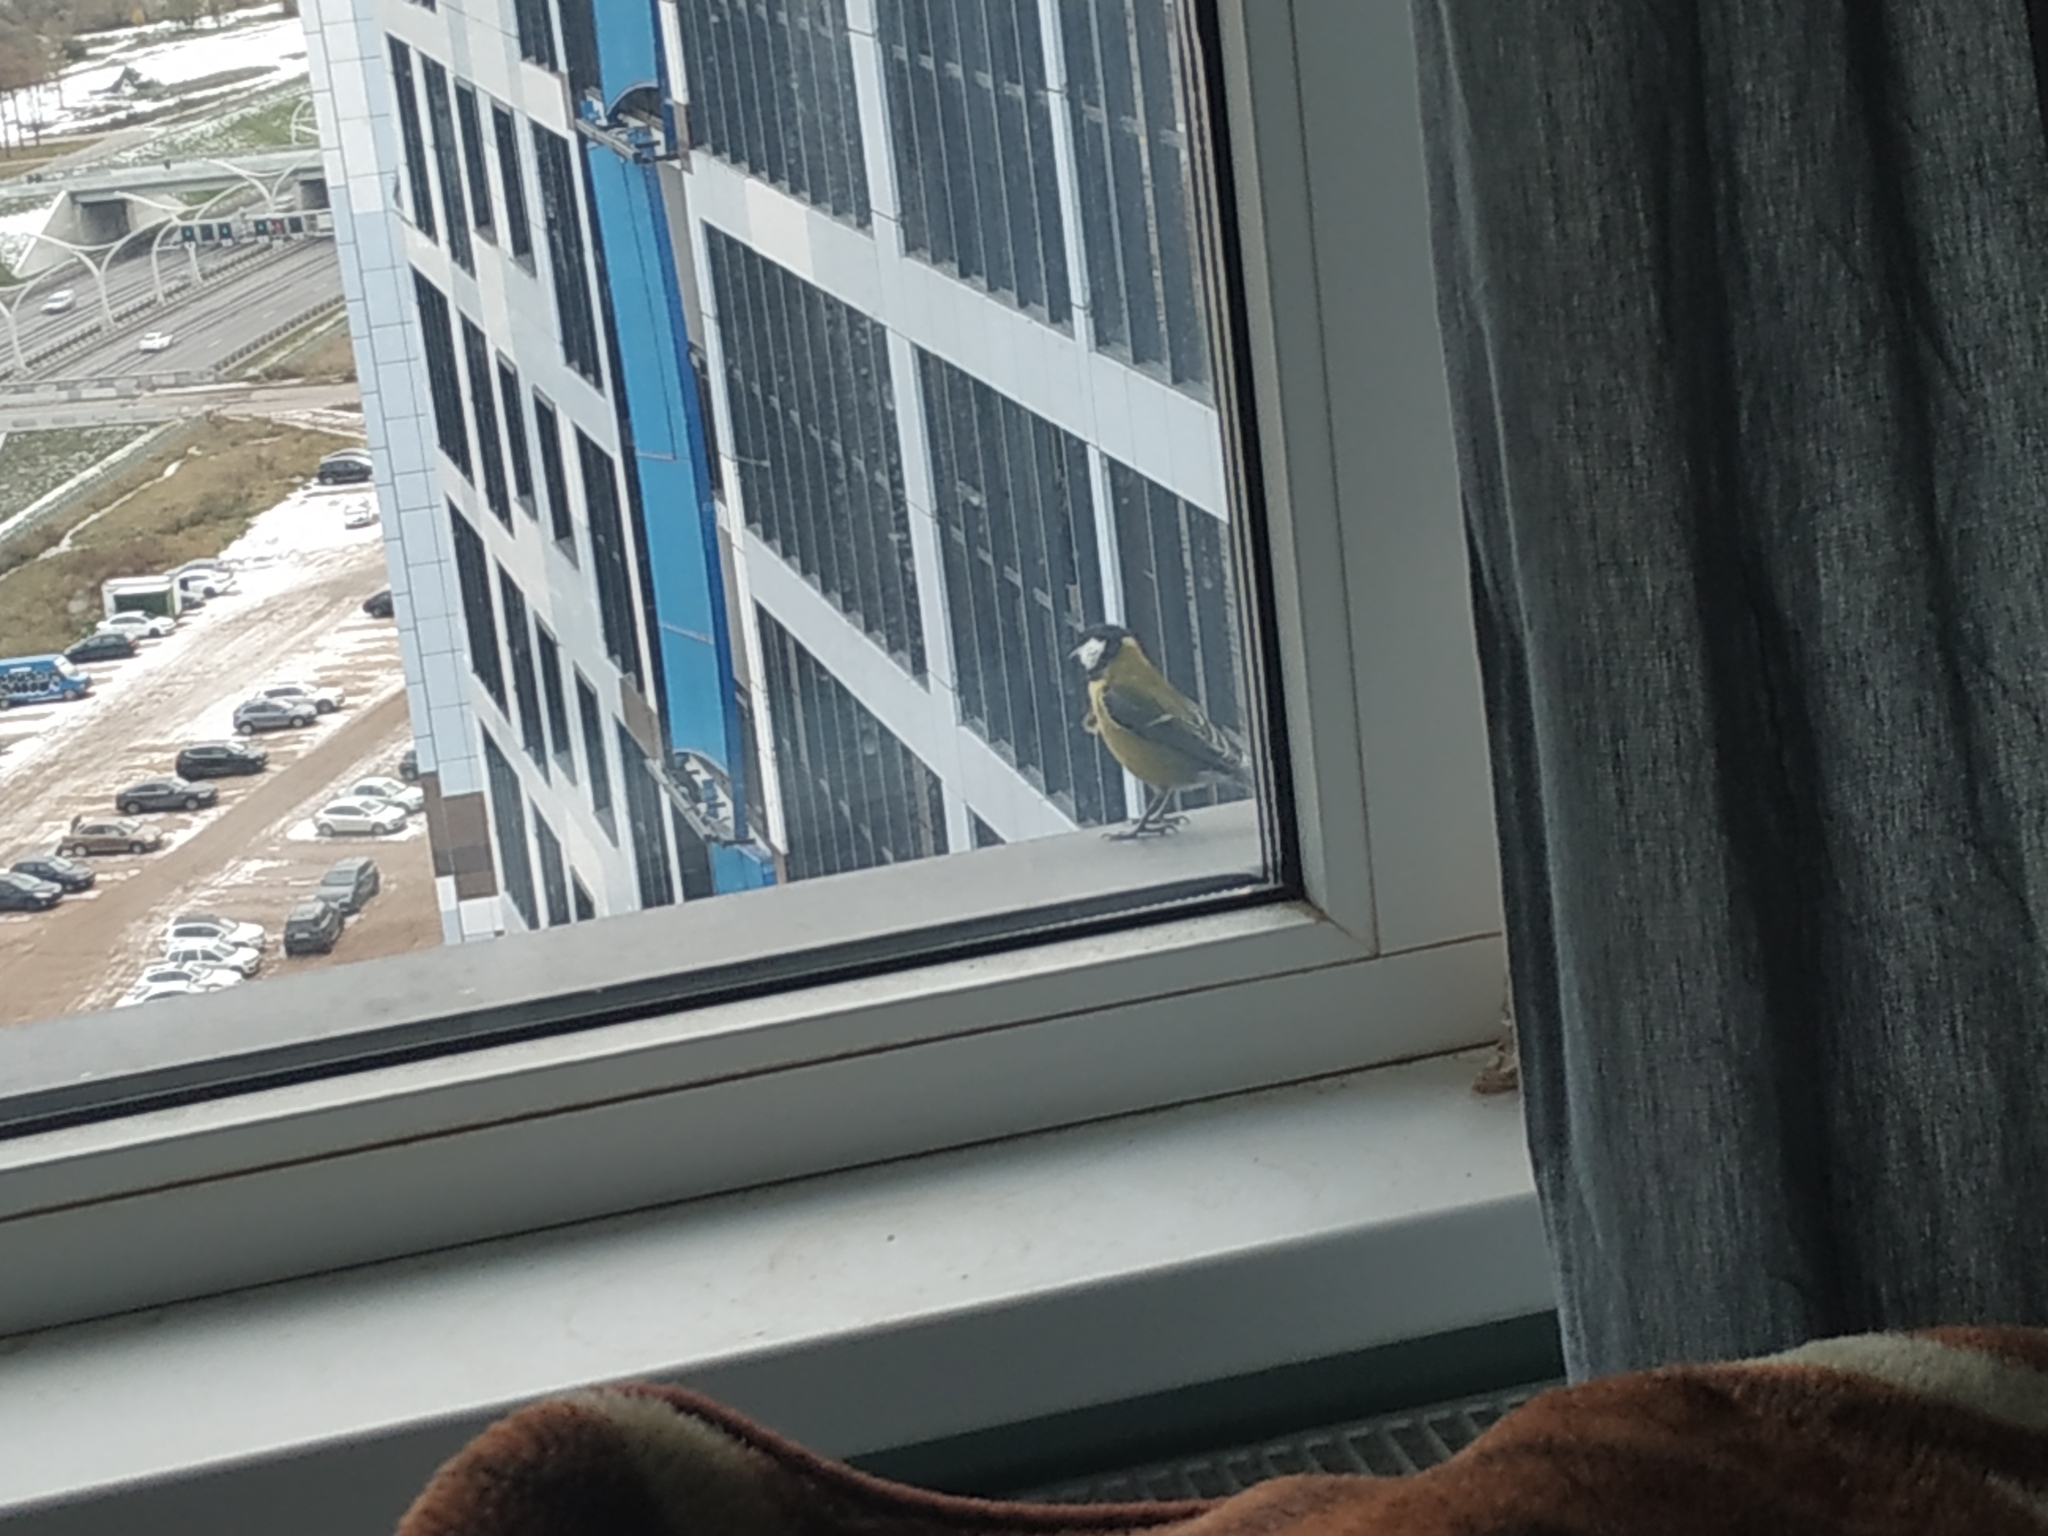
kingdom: Animalia
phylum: Chordata
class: Aves
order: Passeriformes
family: Paridae
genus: Parus
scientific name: Parus major
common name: Great tit
